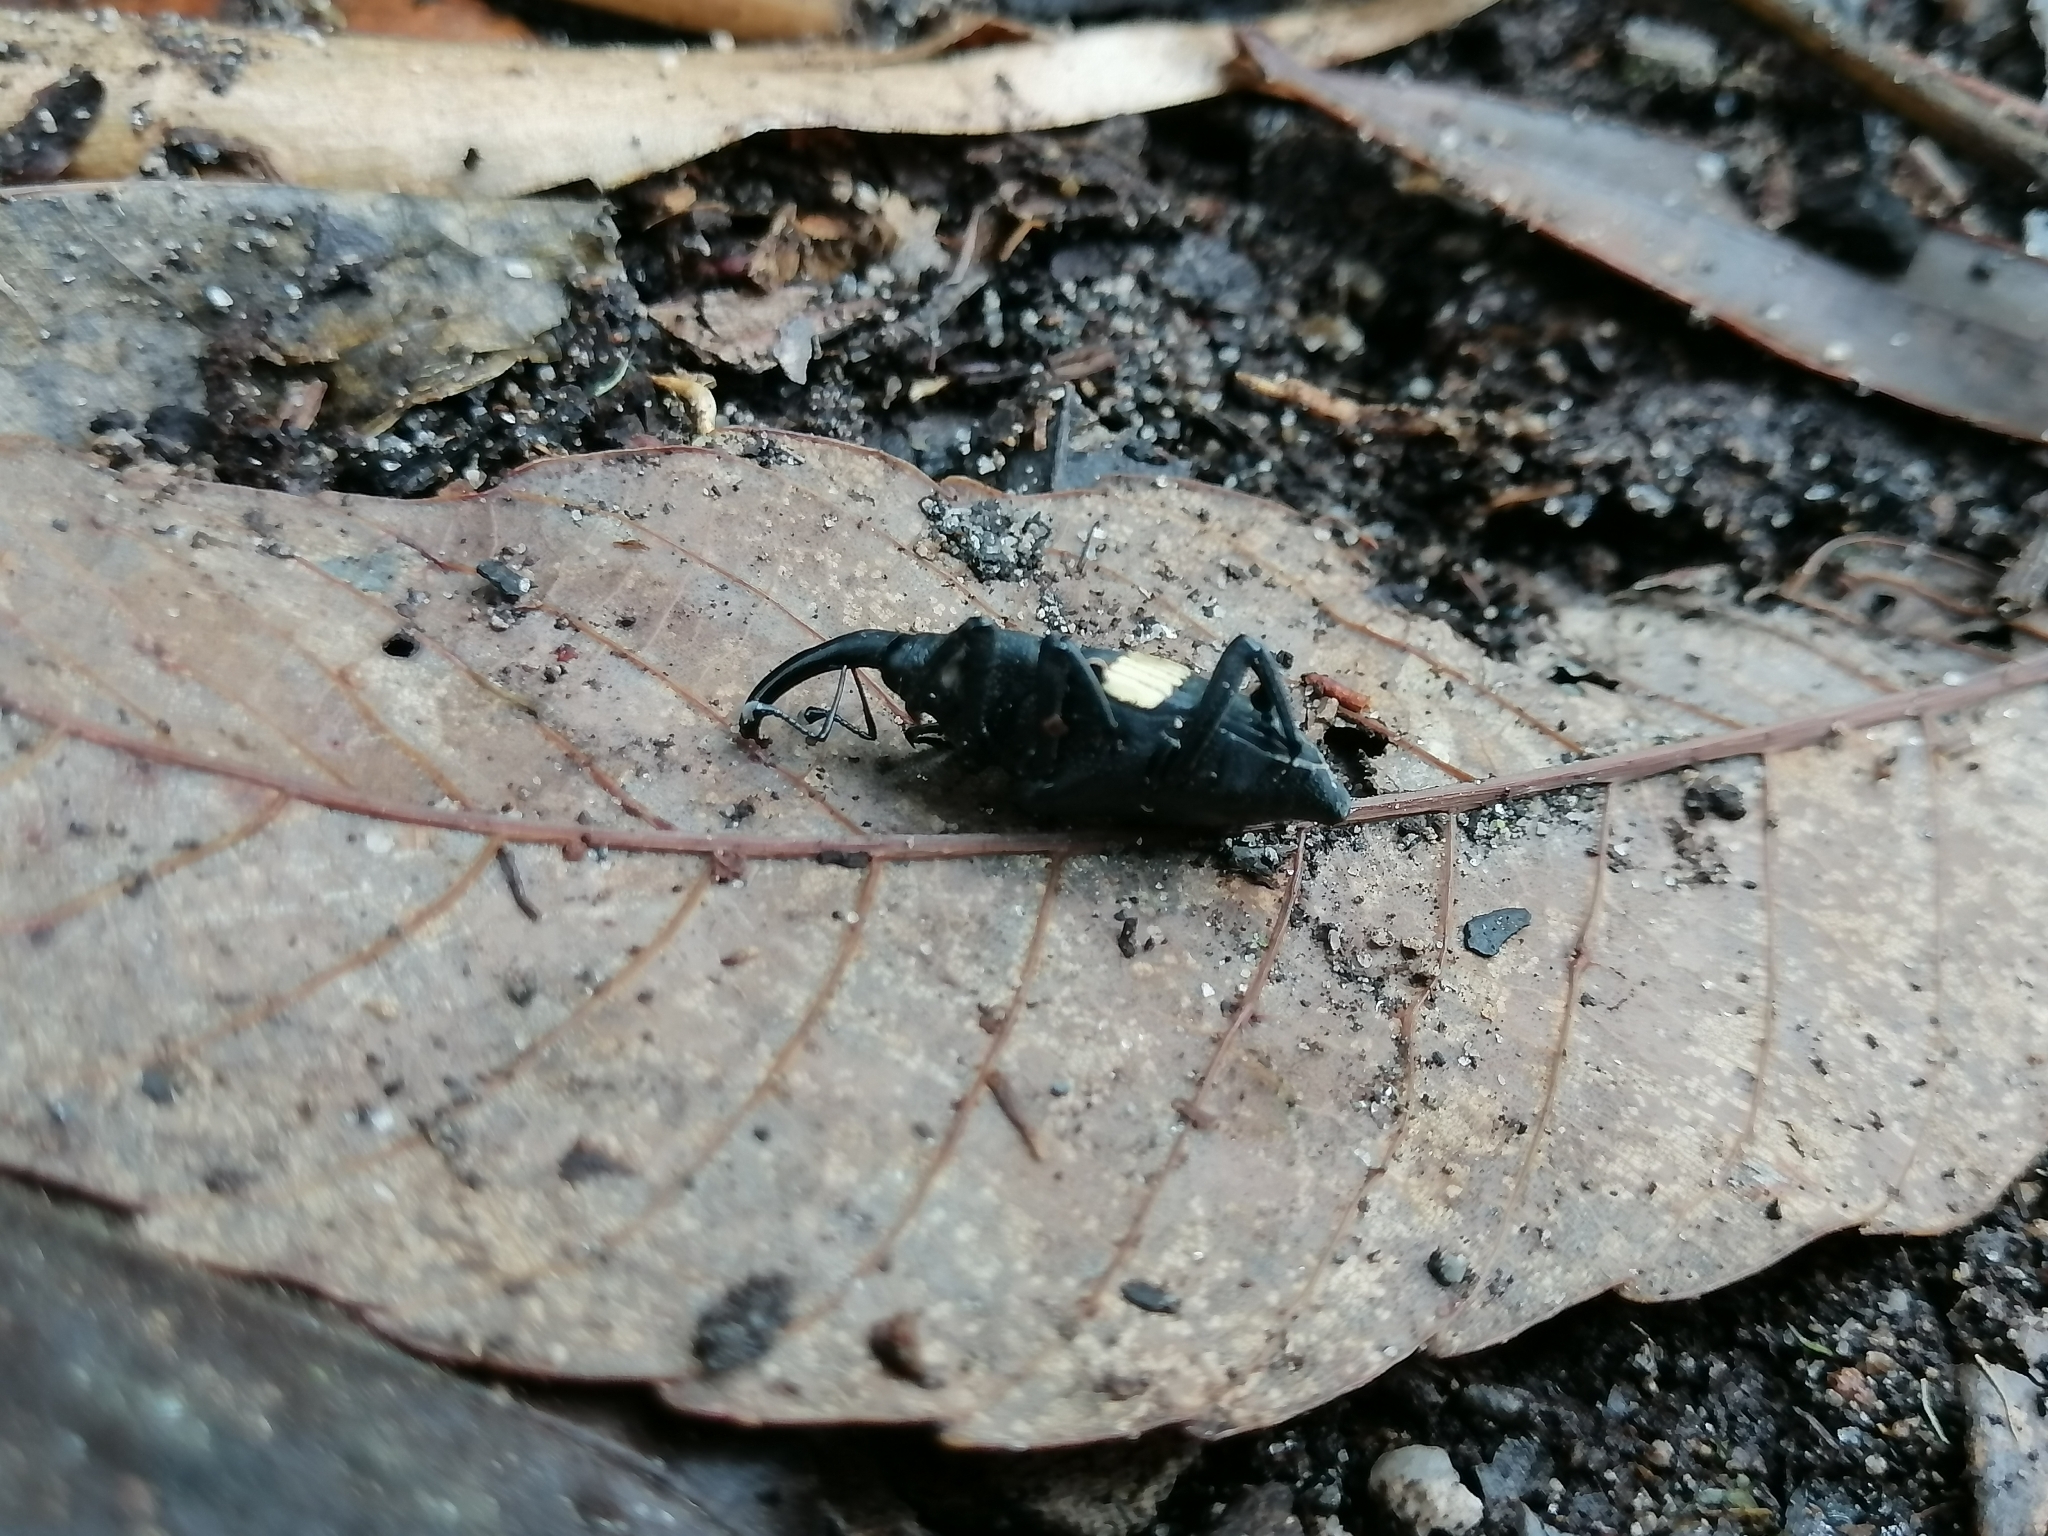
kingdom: Animalia
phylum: Arthropoda
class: Insecta
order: Coleoptera
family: Dryophthoridae
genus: Metamasius
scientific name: Metamasius callizona
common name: Mexican bromeliad weevil
